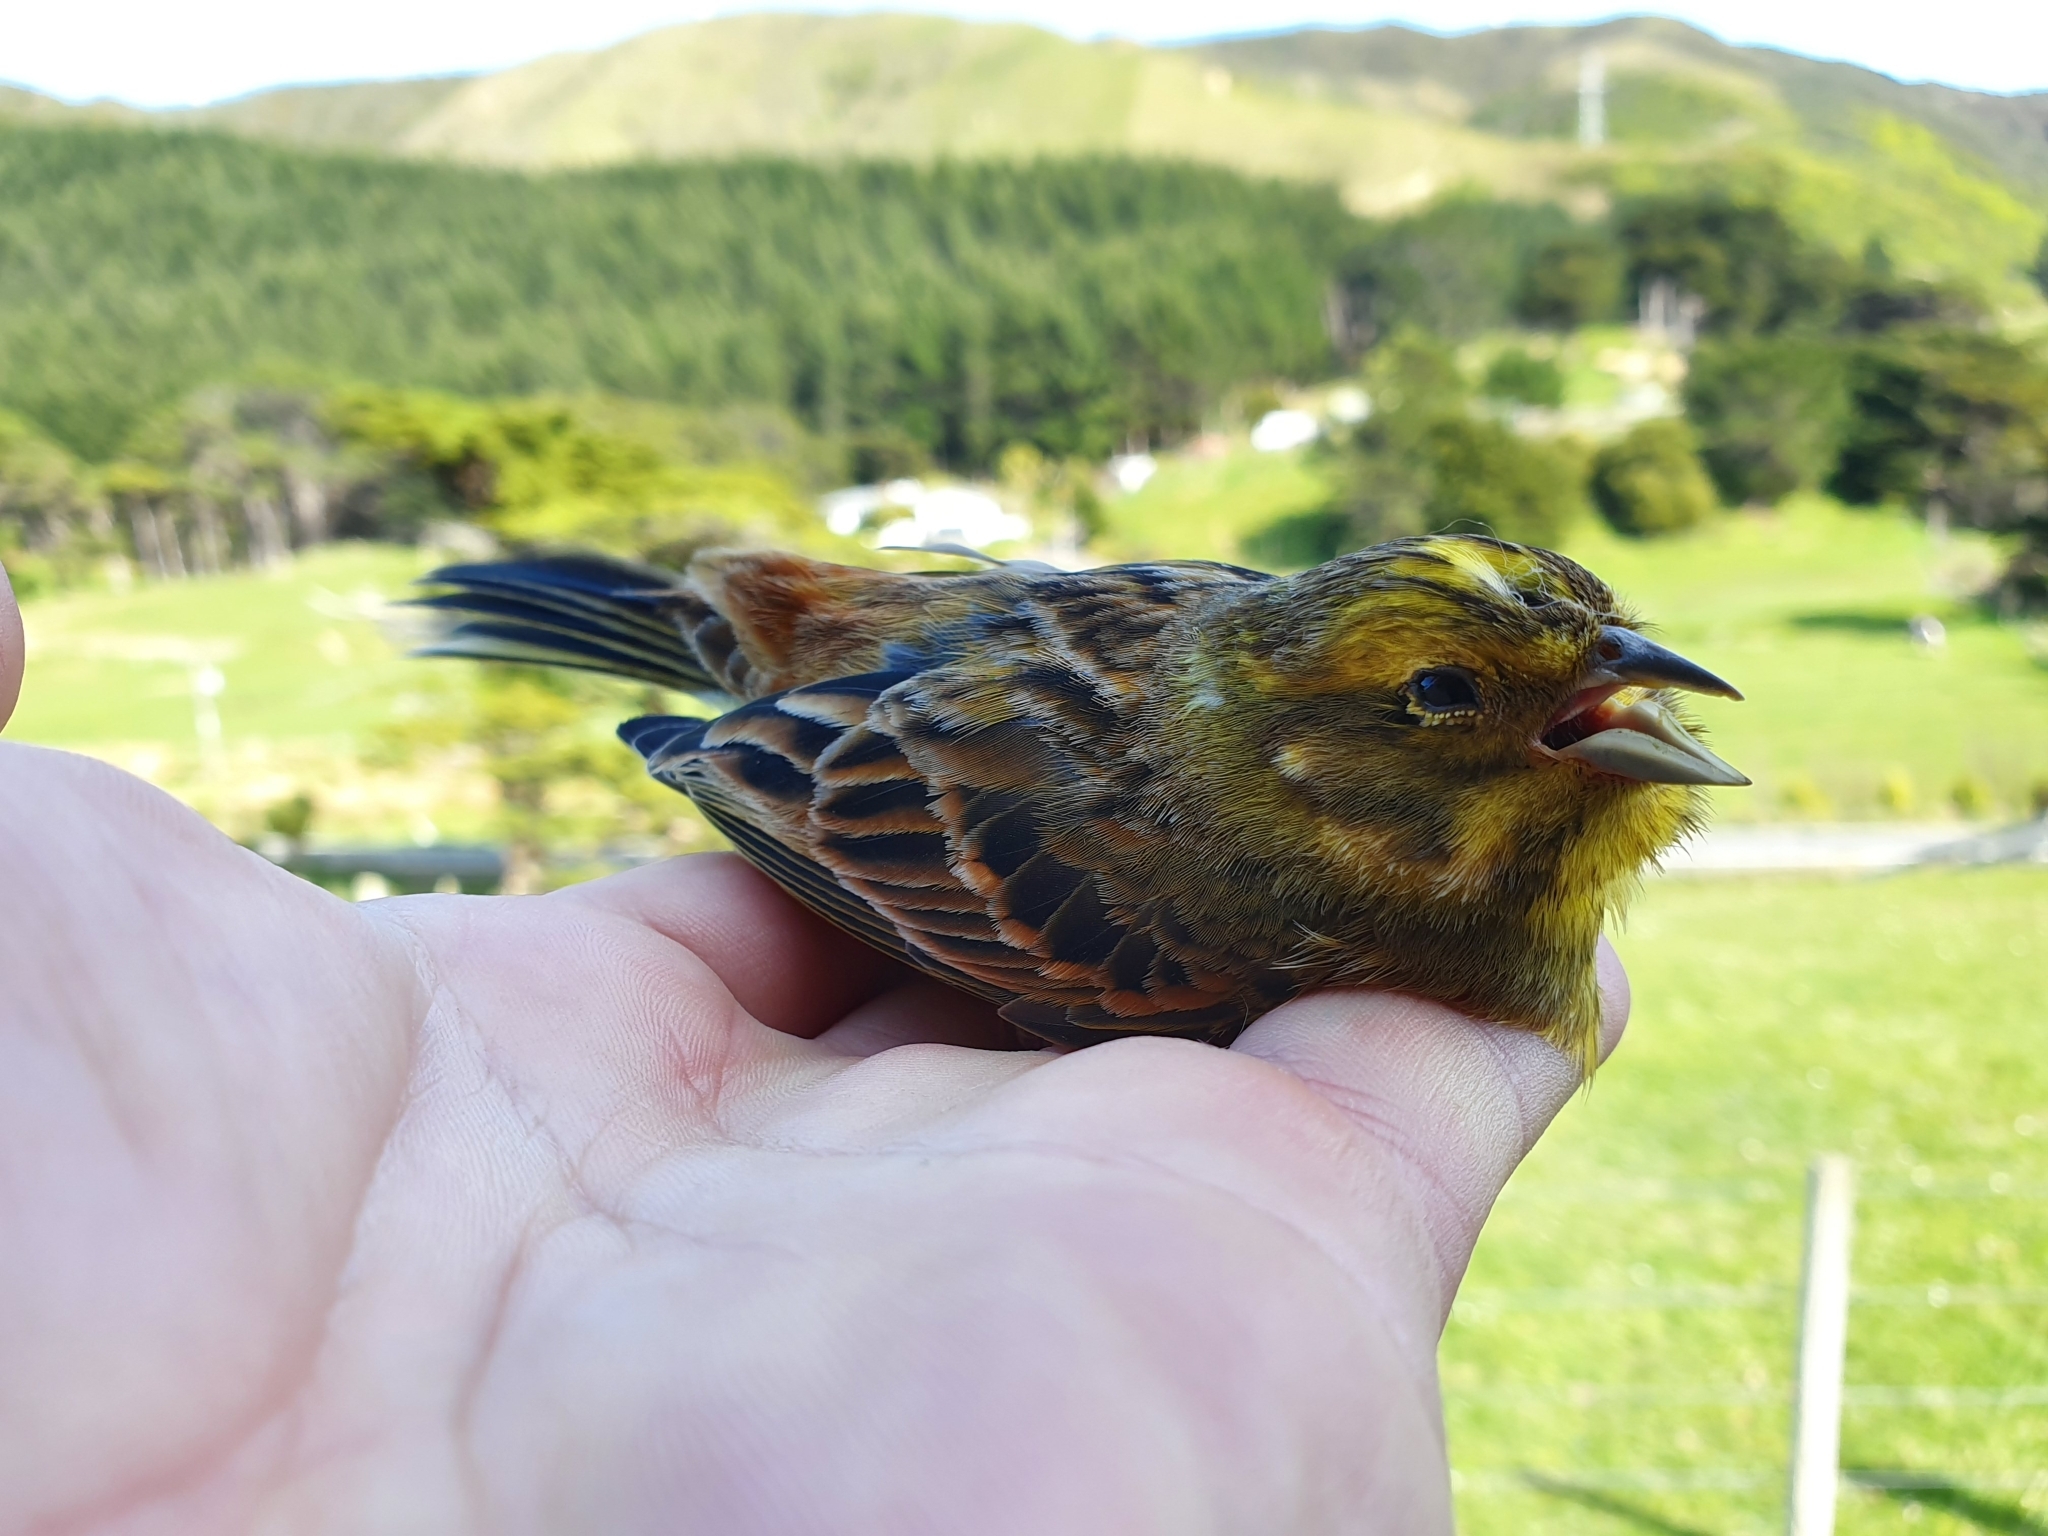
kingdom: Animalia
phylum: Chordata
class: Aves
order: Passeriformes
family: Emberizidae
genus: Emberiza
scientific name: Emberiza citrinella
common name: Yellowhammer
